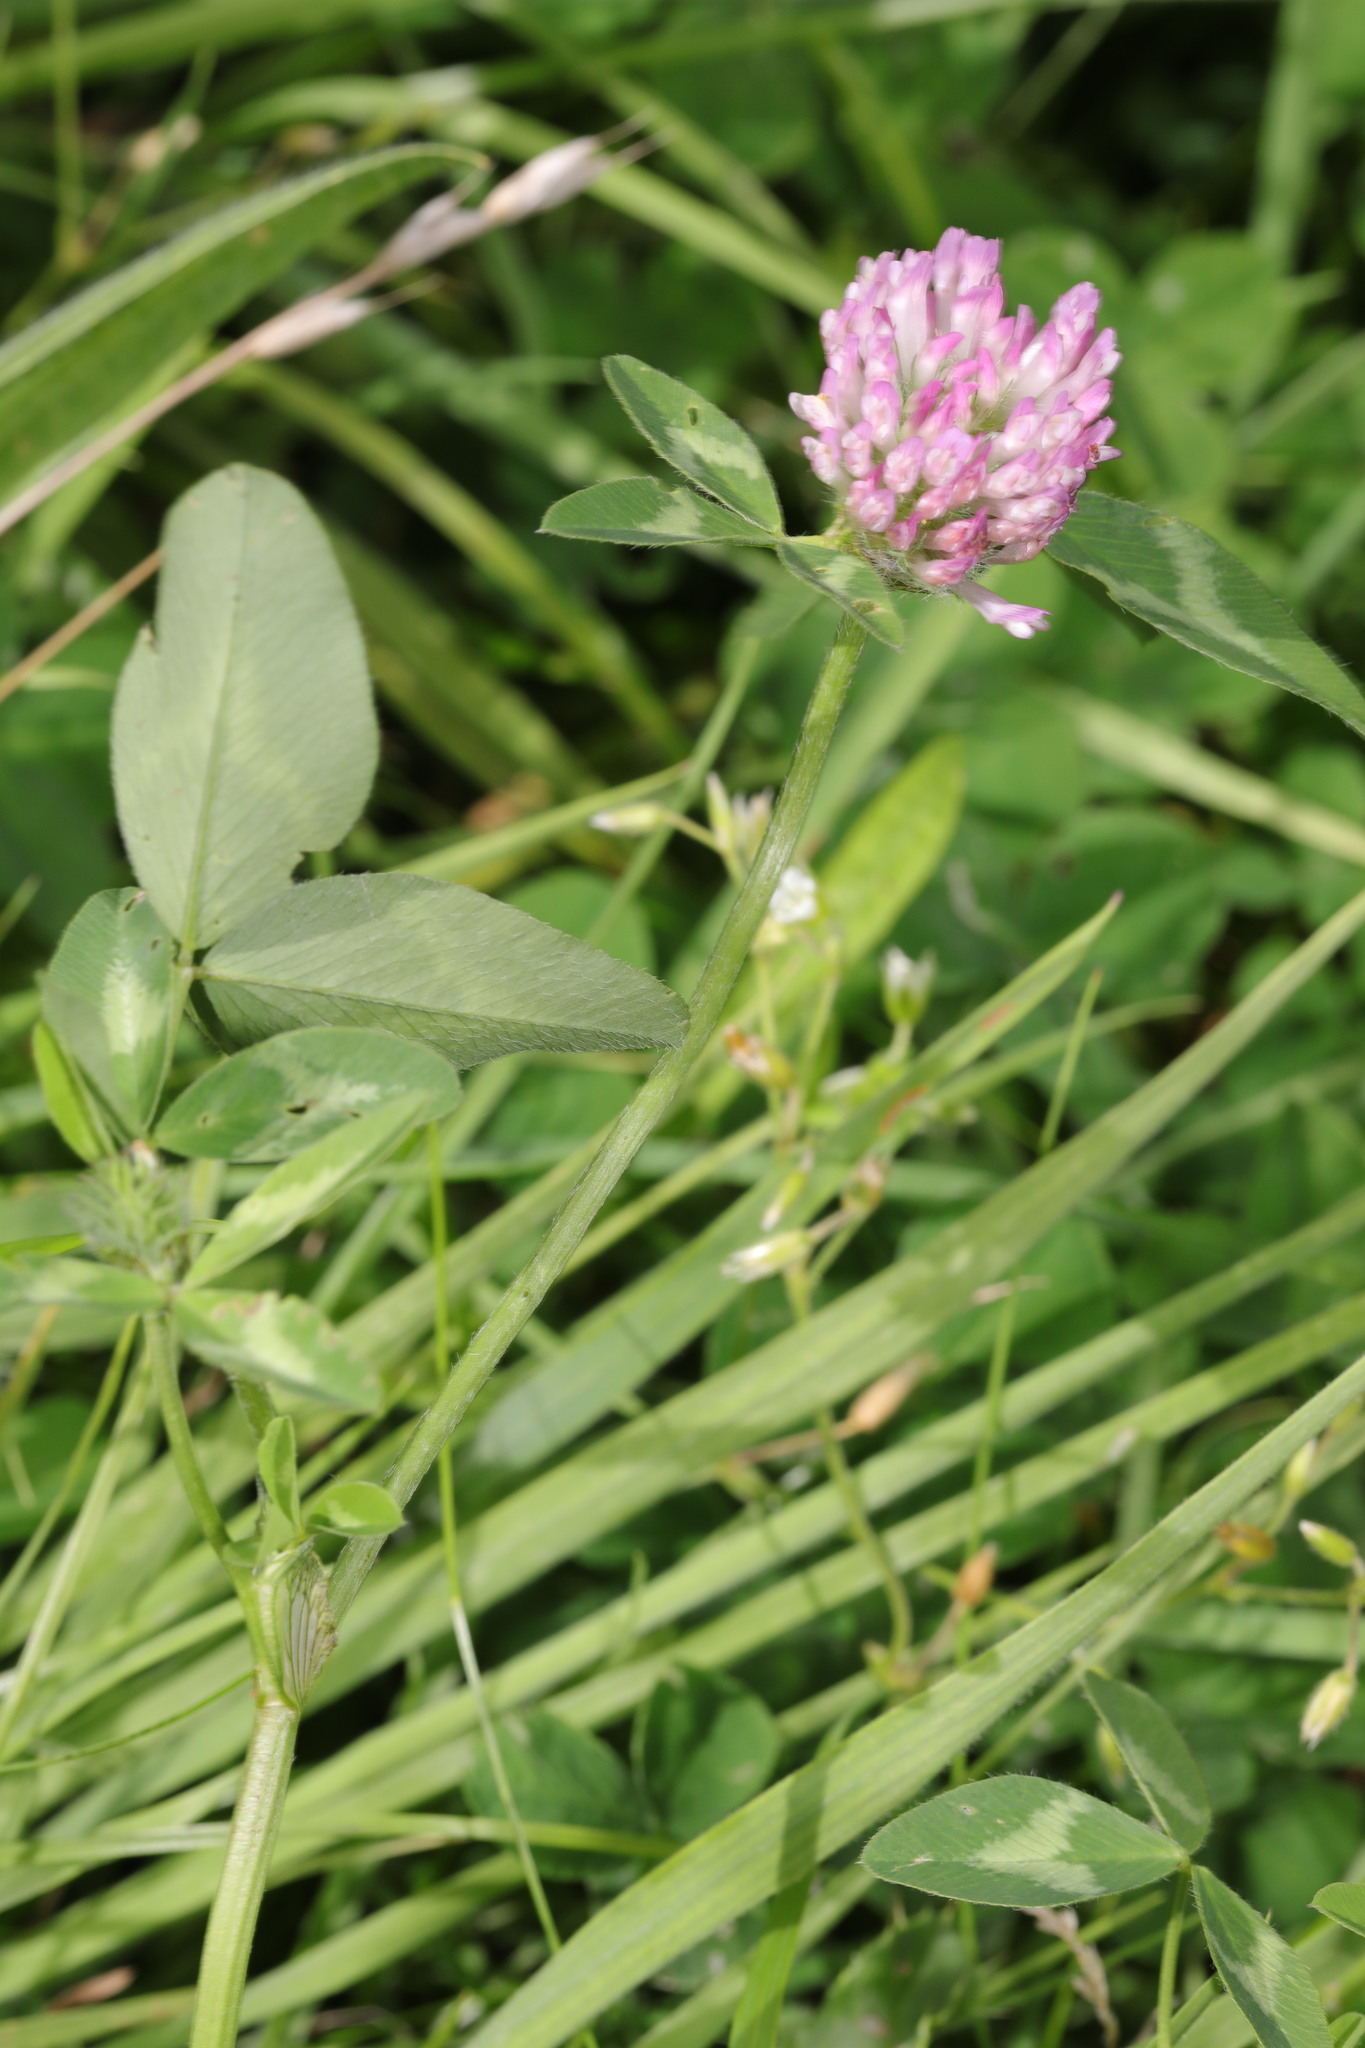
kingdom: Plantae
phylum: Tracheophyta
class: Magnoliopsida
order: Fabales
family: Fabaceae
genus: Trifolium
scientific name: Trifolium pratense
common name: Red clover
